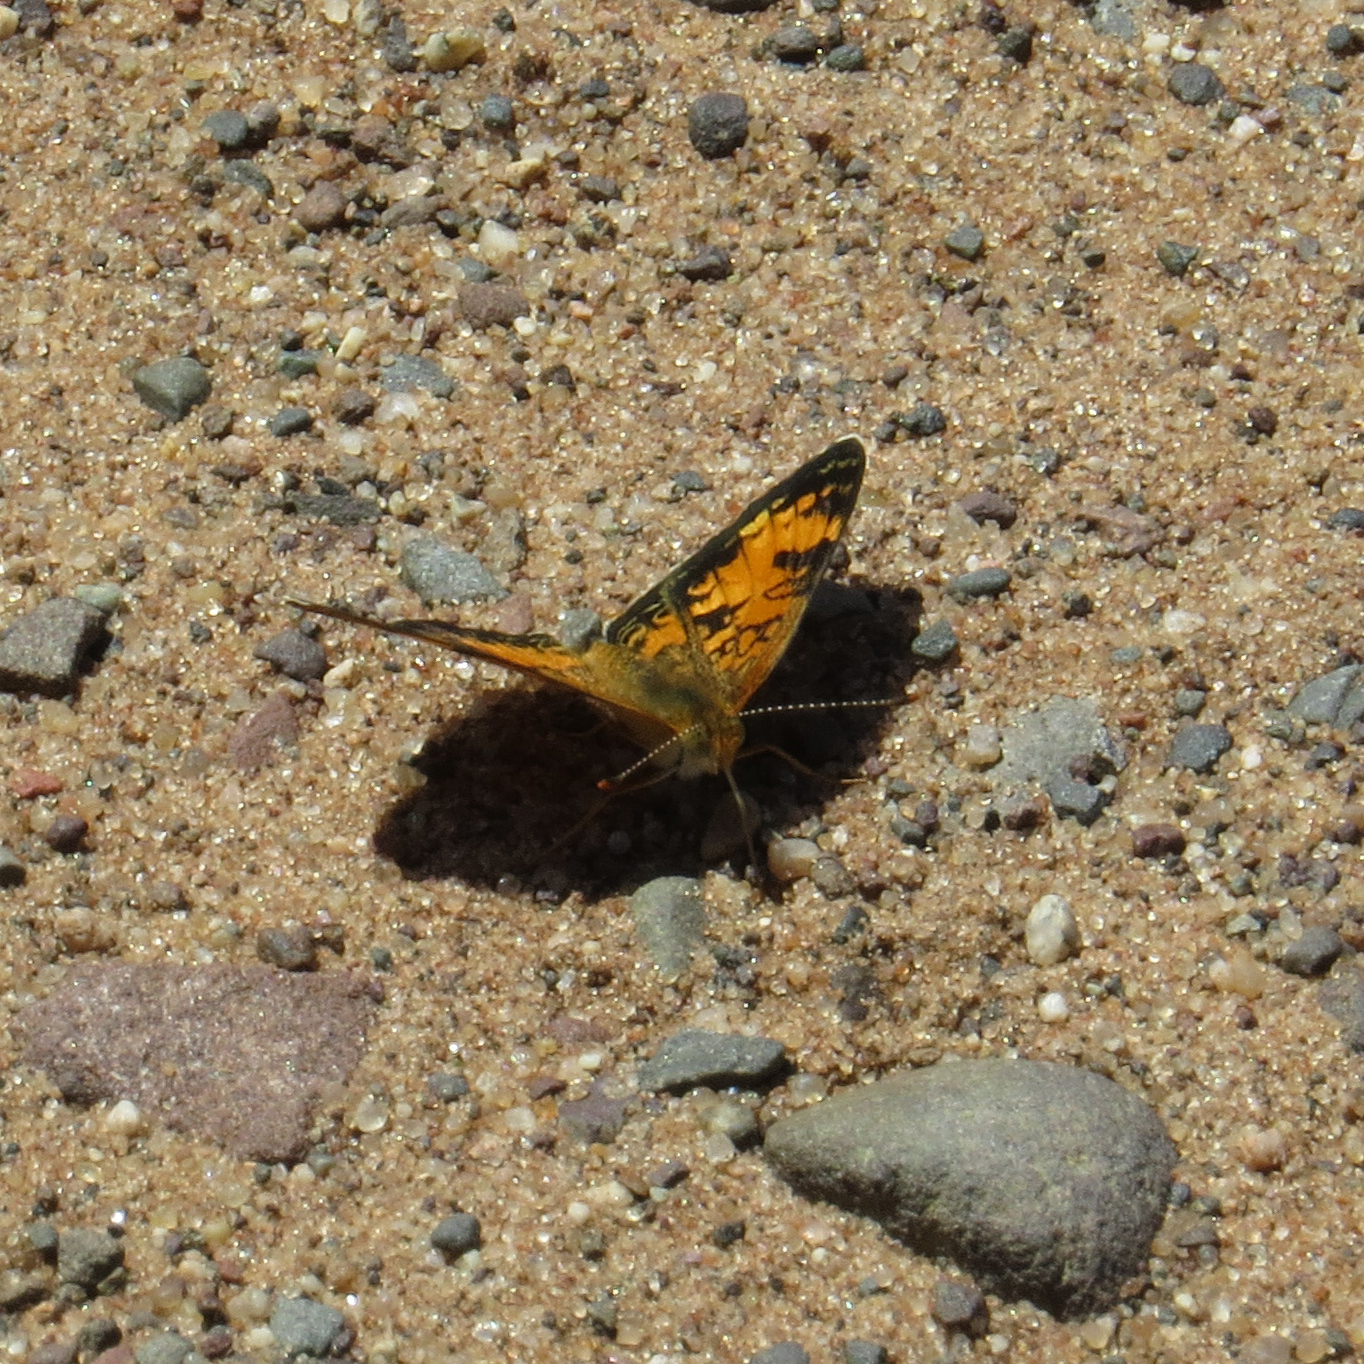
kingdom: Animalia
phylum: Arthropoda
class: Insecta
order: Lepidoptera
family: Nymphalidae
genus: Phyciodes
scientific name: Phyciodes tharos
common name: Pearl crescent
